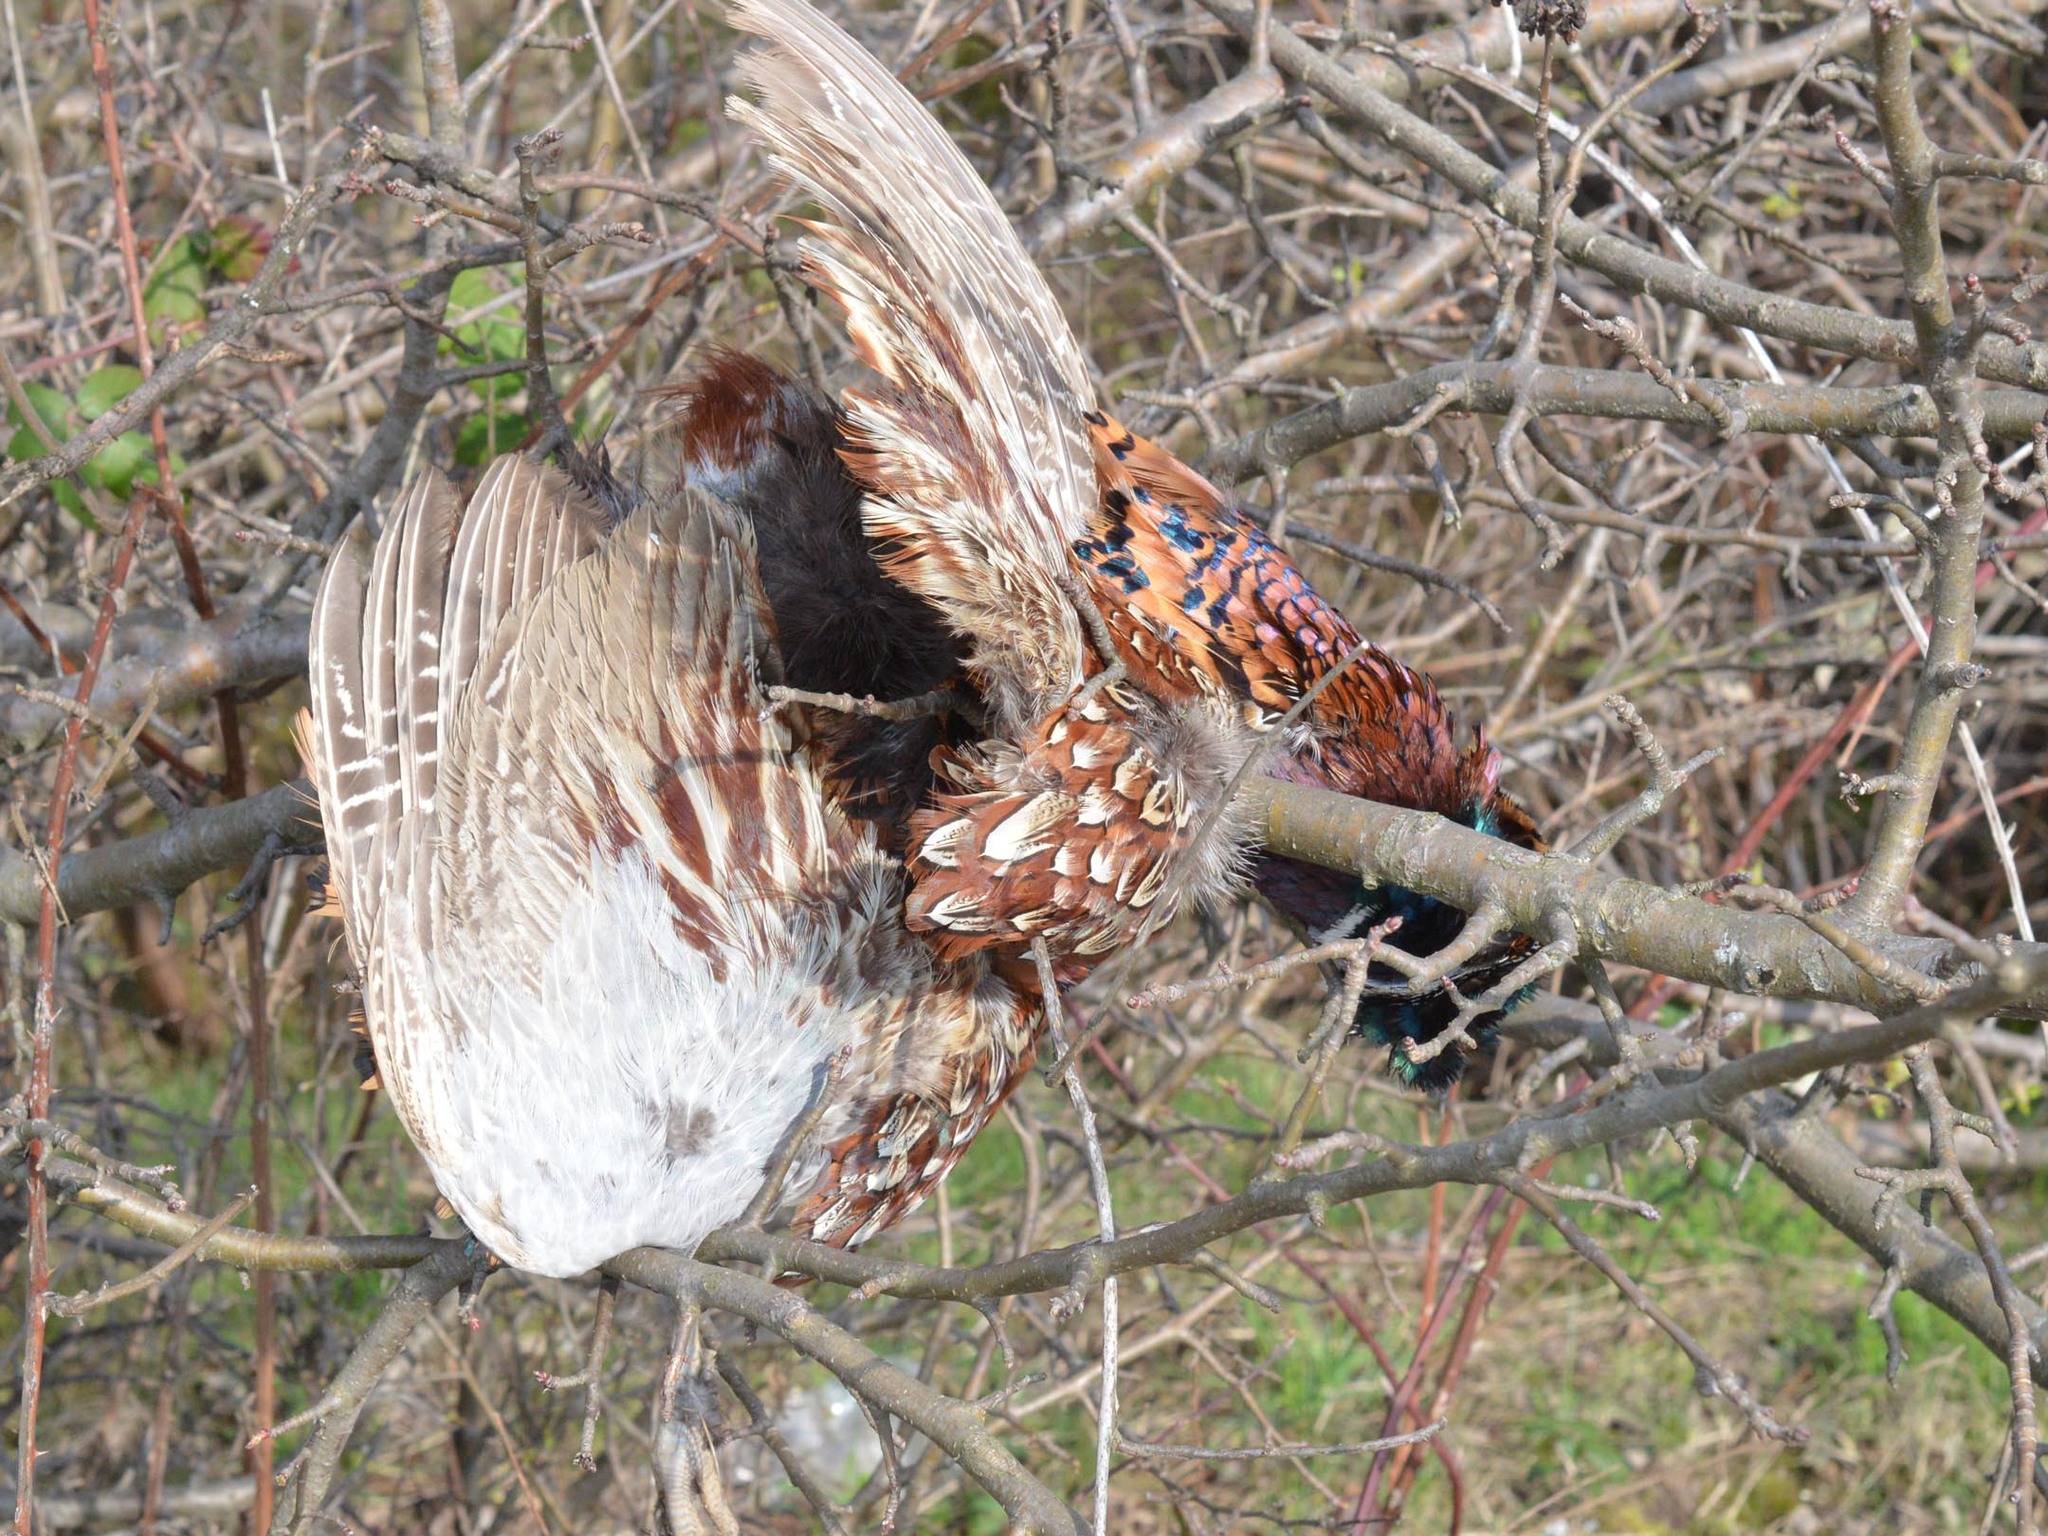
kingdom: Animalia
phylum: Chordata
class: Aves
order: Galliformes
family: Phasianidae
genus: Phasianus
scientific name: Phasianus colchicus
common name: Common pheasant
